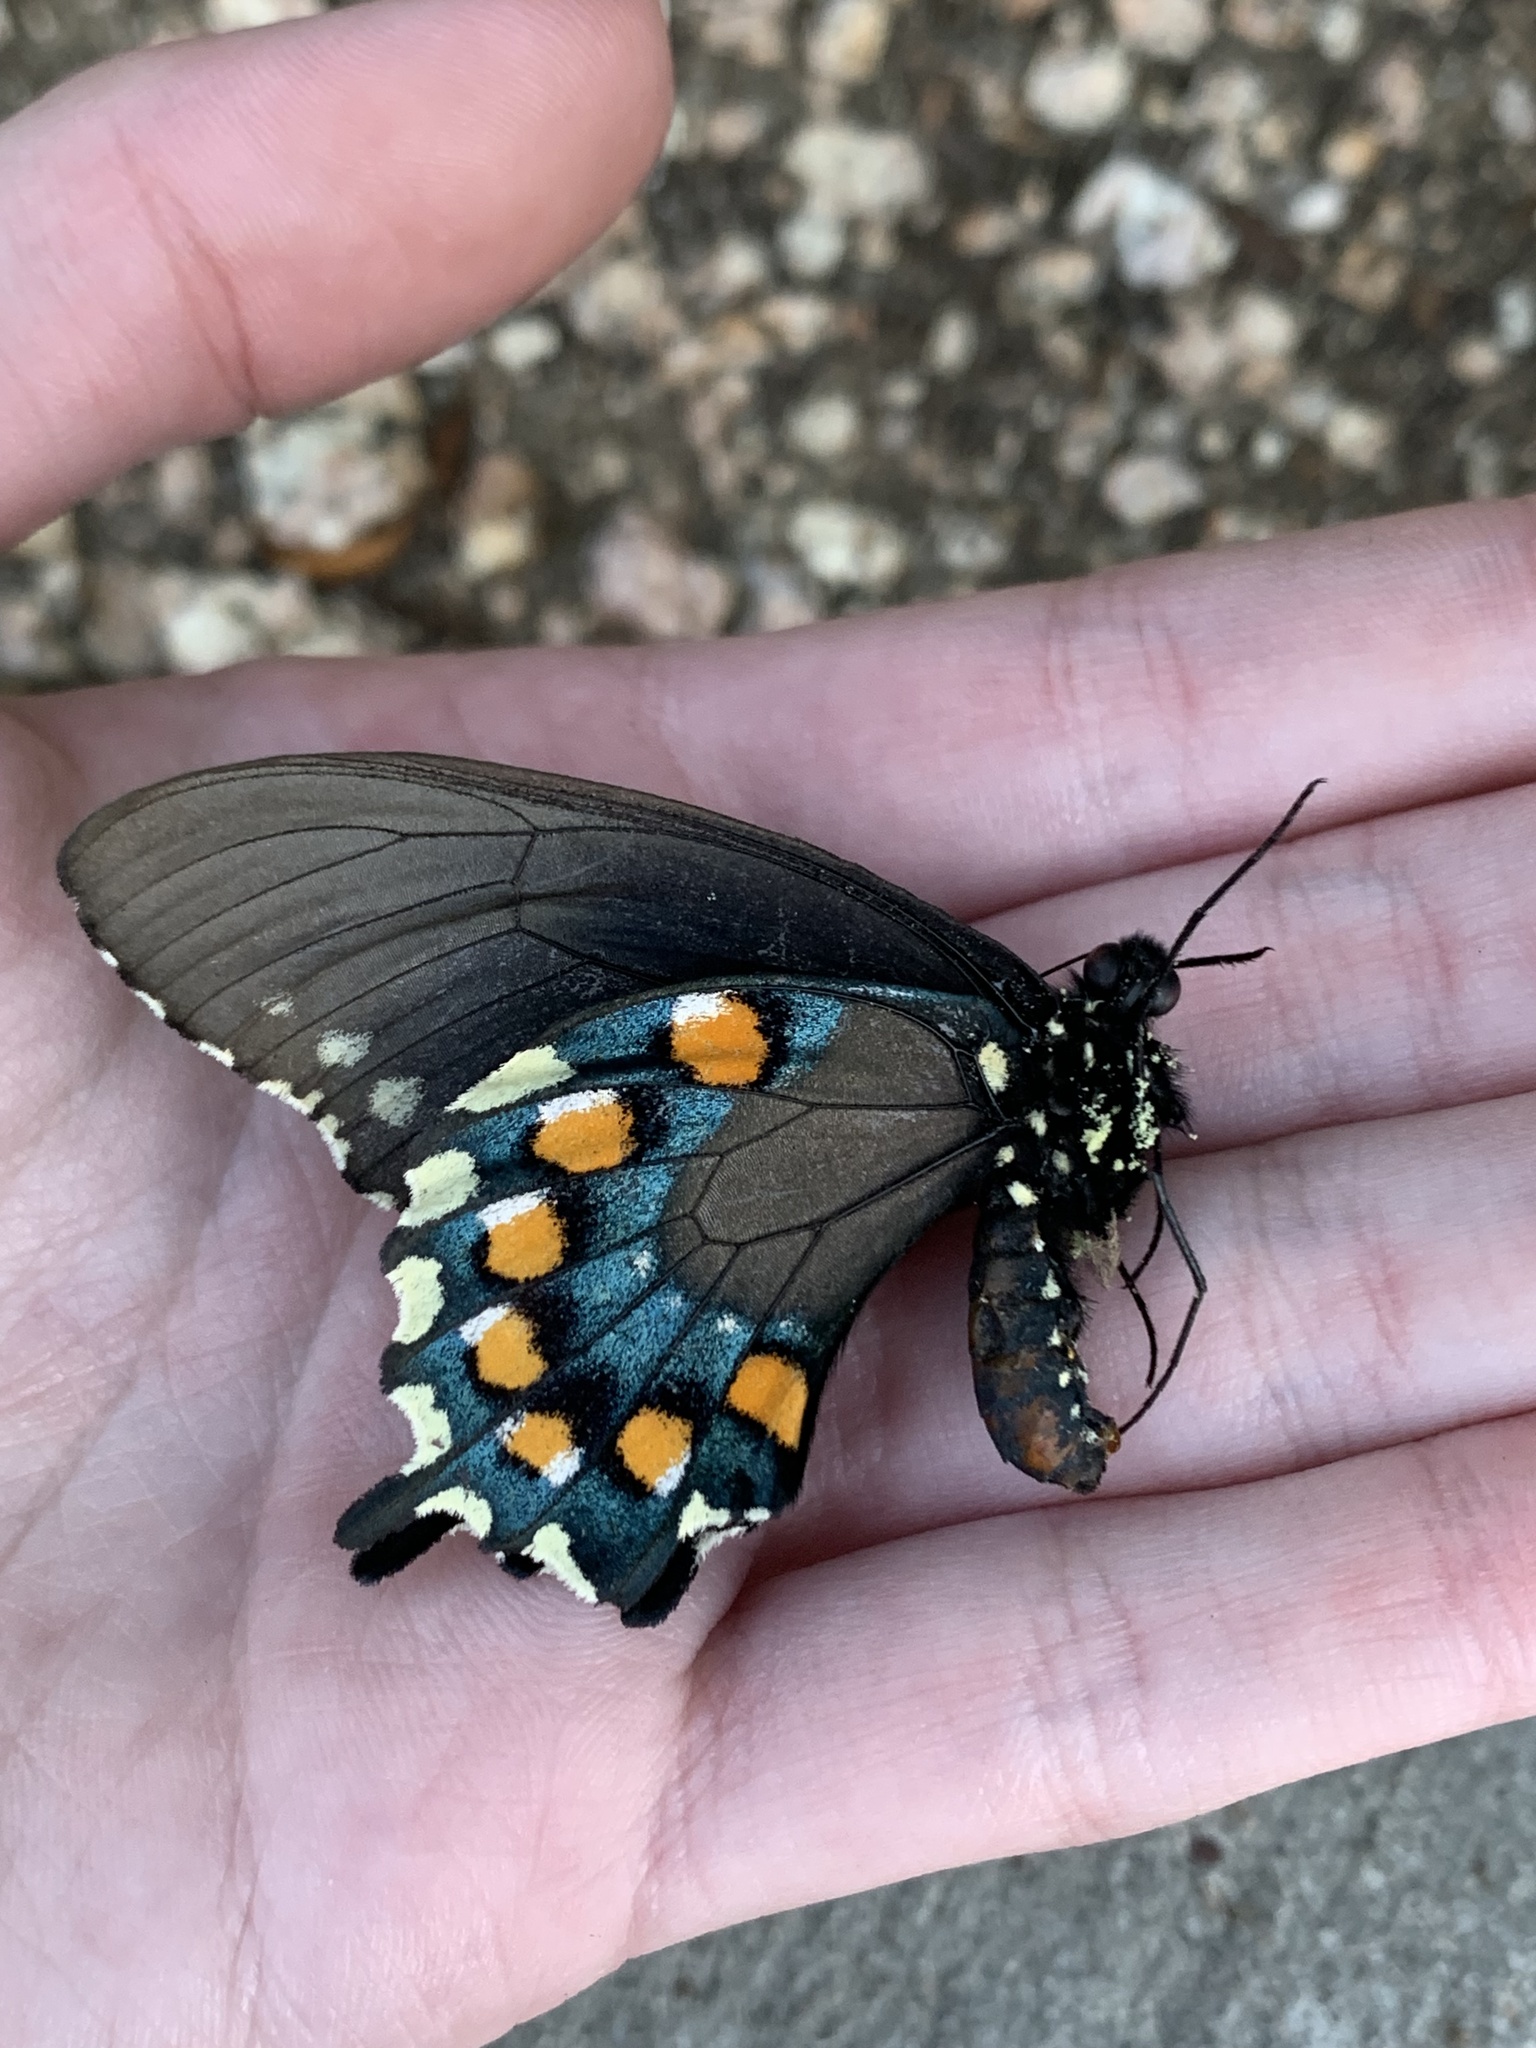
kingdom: Animalia
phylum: Arthropoda
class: Insecta
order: Lepidoptera
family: Papilionidae
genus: Battus
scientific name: Battus philenor
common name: Pipevine swallowtail
